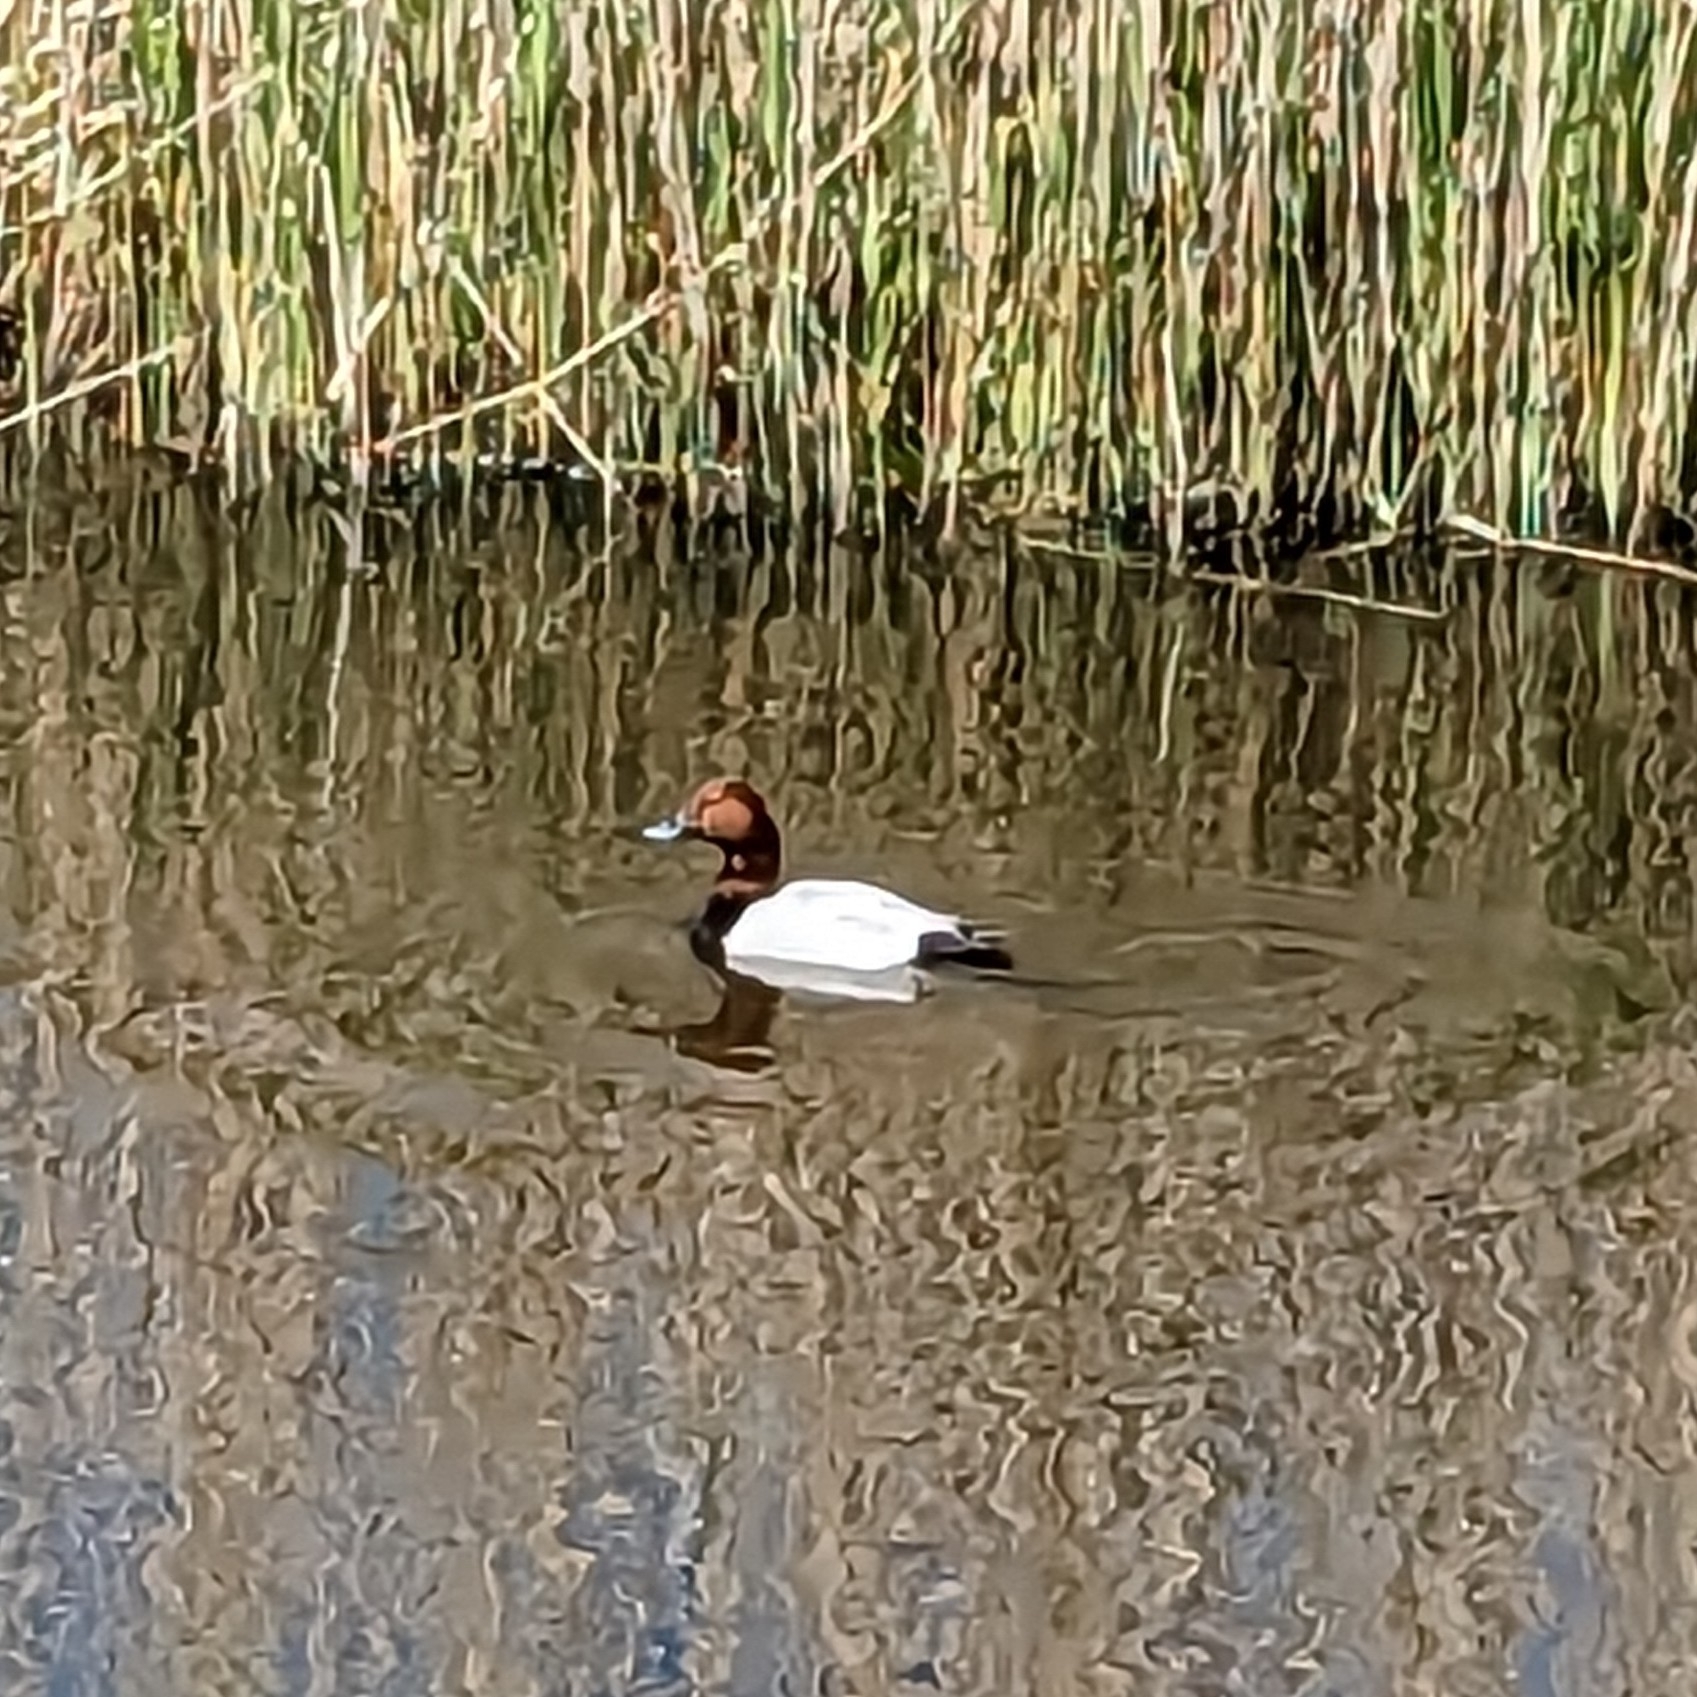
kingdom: Animalia
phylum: Chordata
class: Aves
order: Anseriformes
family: Anatidae
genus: Aythya
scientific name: Aythya ferina
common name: Common pochard
